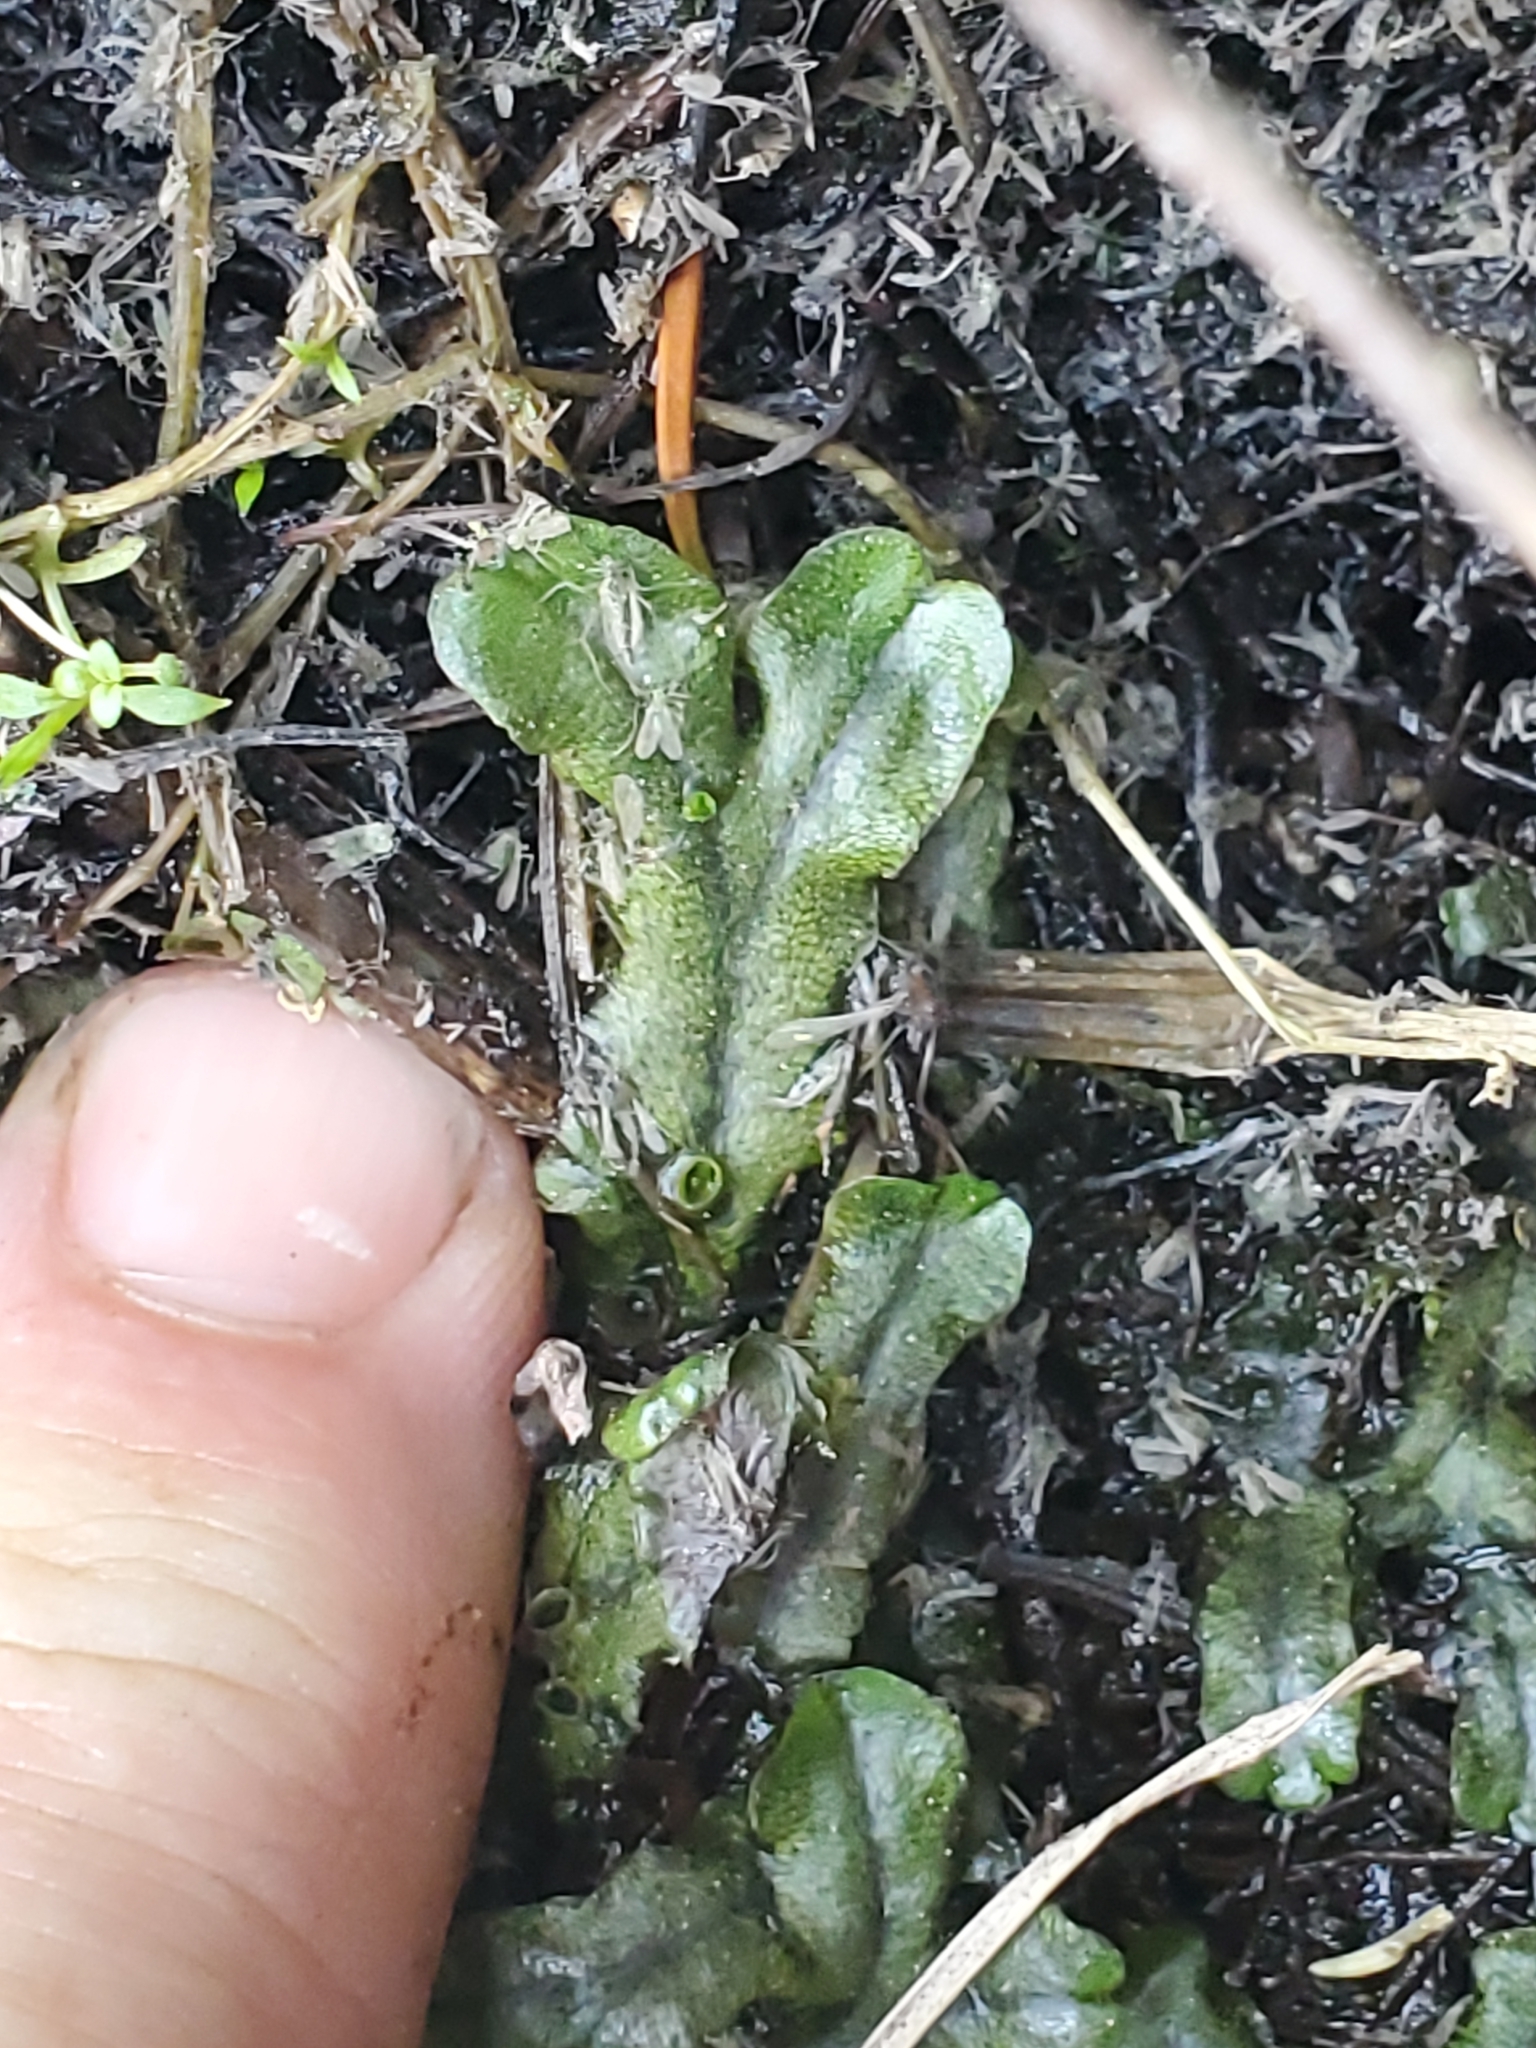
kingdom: Plantae
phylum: Marchantiophyta
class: Marchantiopsida
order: Marchantiales
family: Marchantiaceae
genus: Marchantia
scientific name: Marchantia polymorpha
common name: Common liverwort
